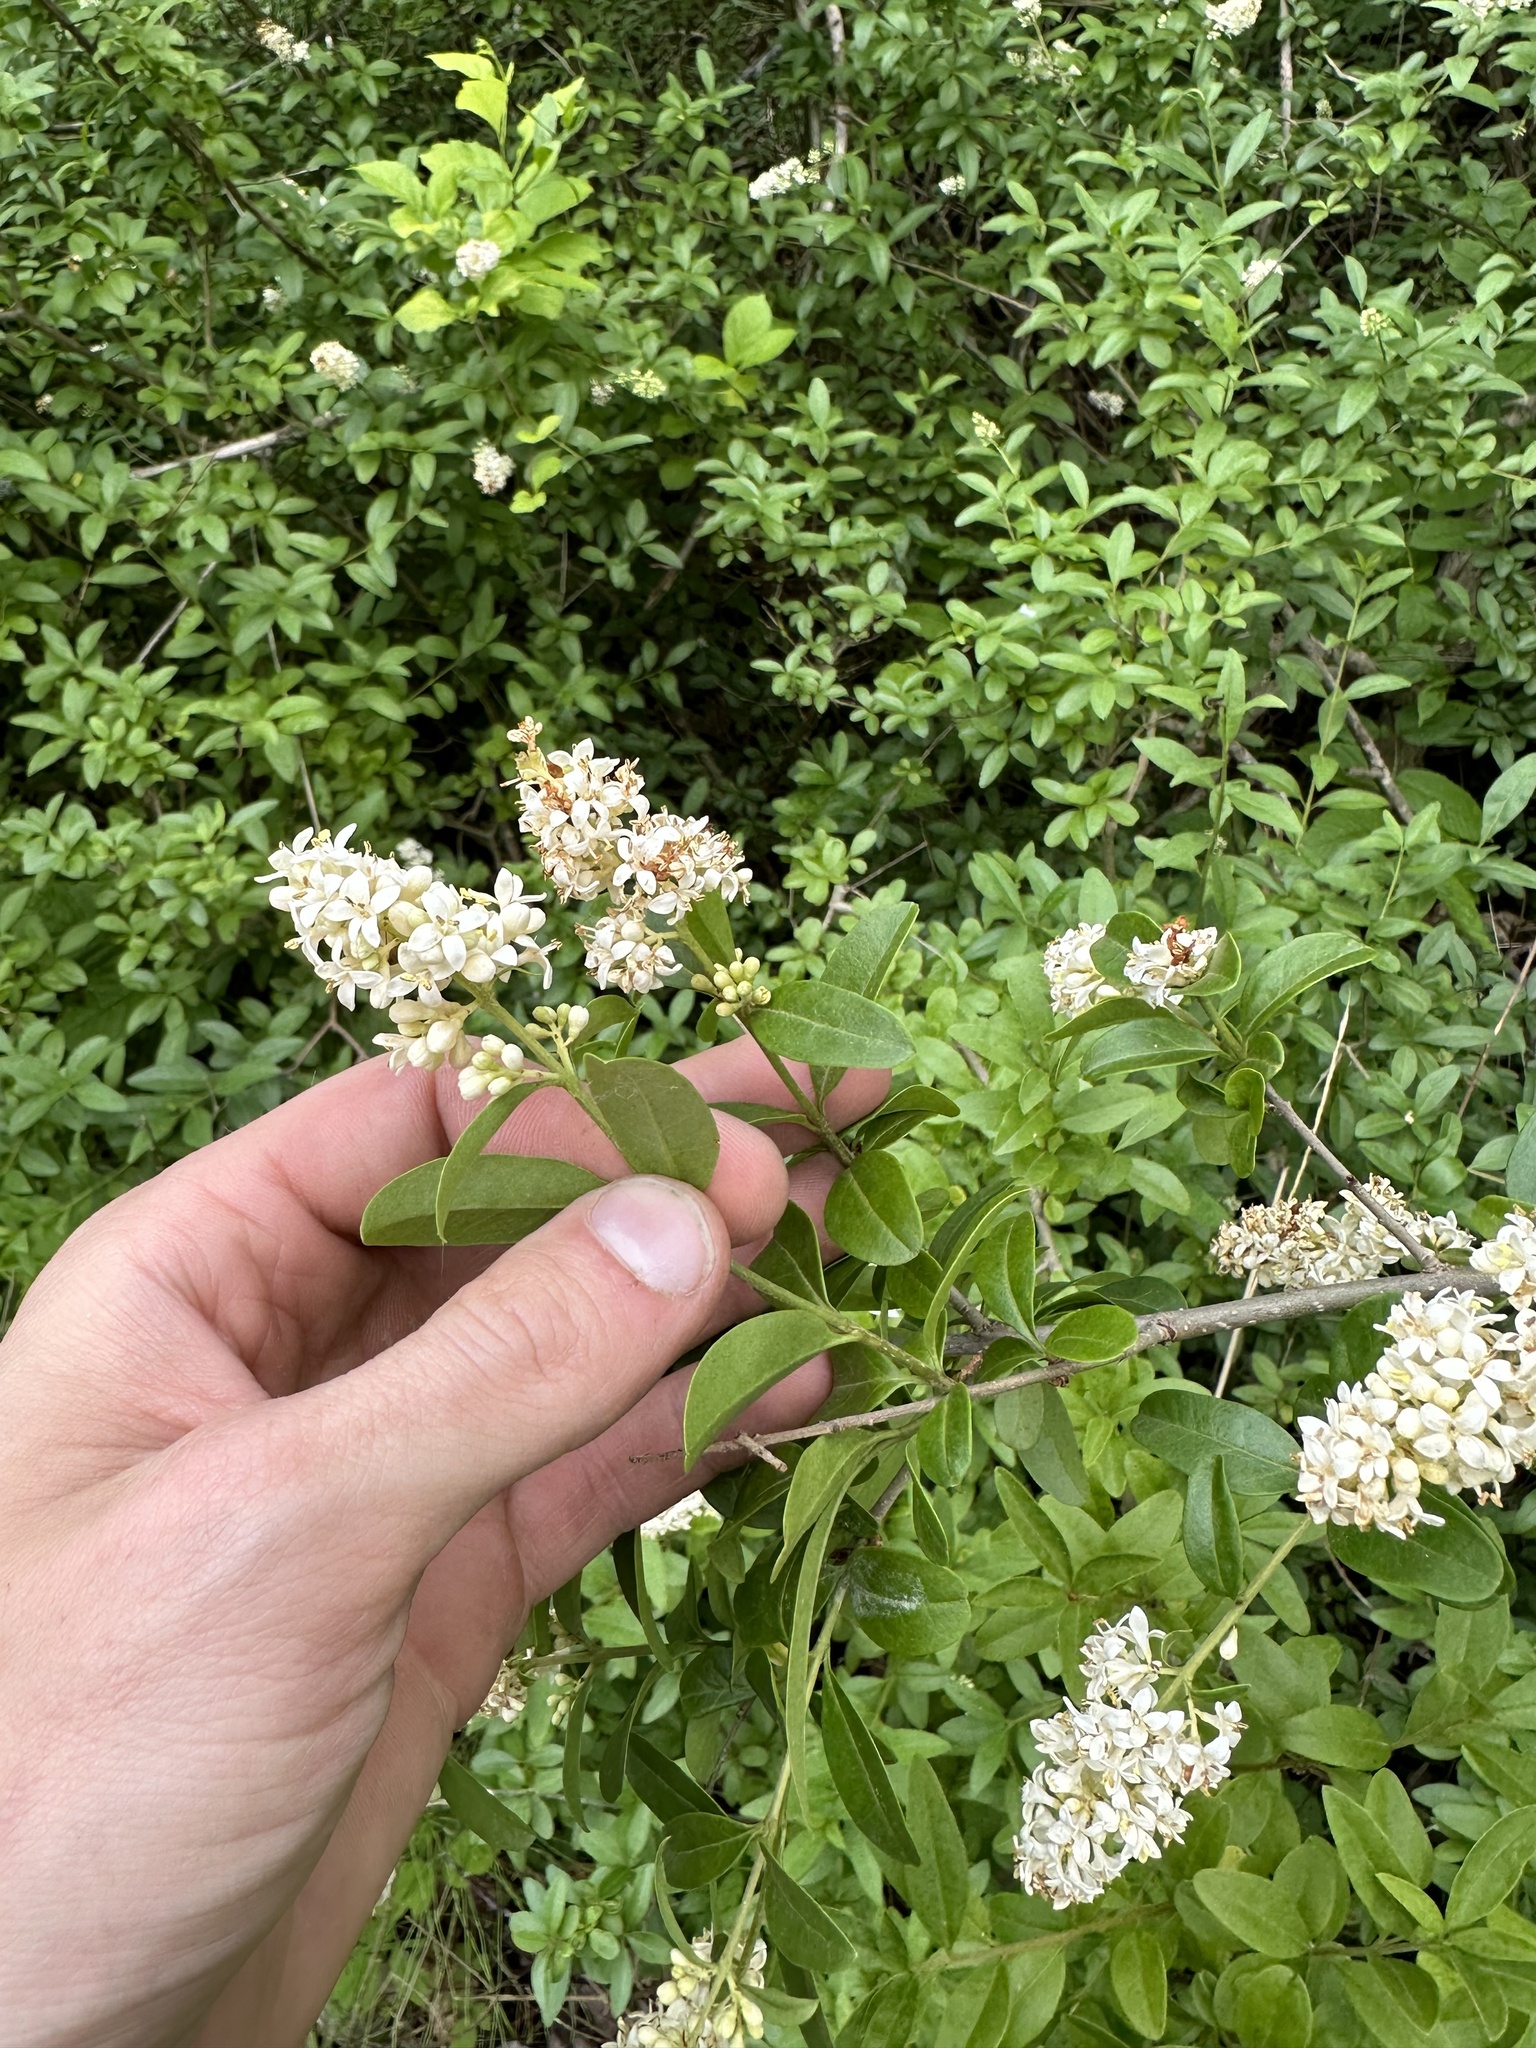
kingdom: Plantae
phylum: Tracheophyta
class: Magnoliopsida
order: Lamiales
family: Oleaceae
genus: Ligustrum
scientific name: Ligustrum vulgare
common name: Wild privet
